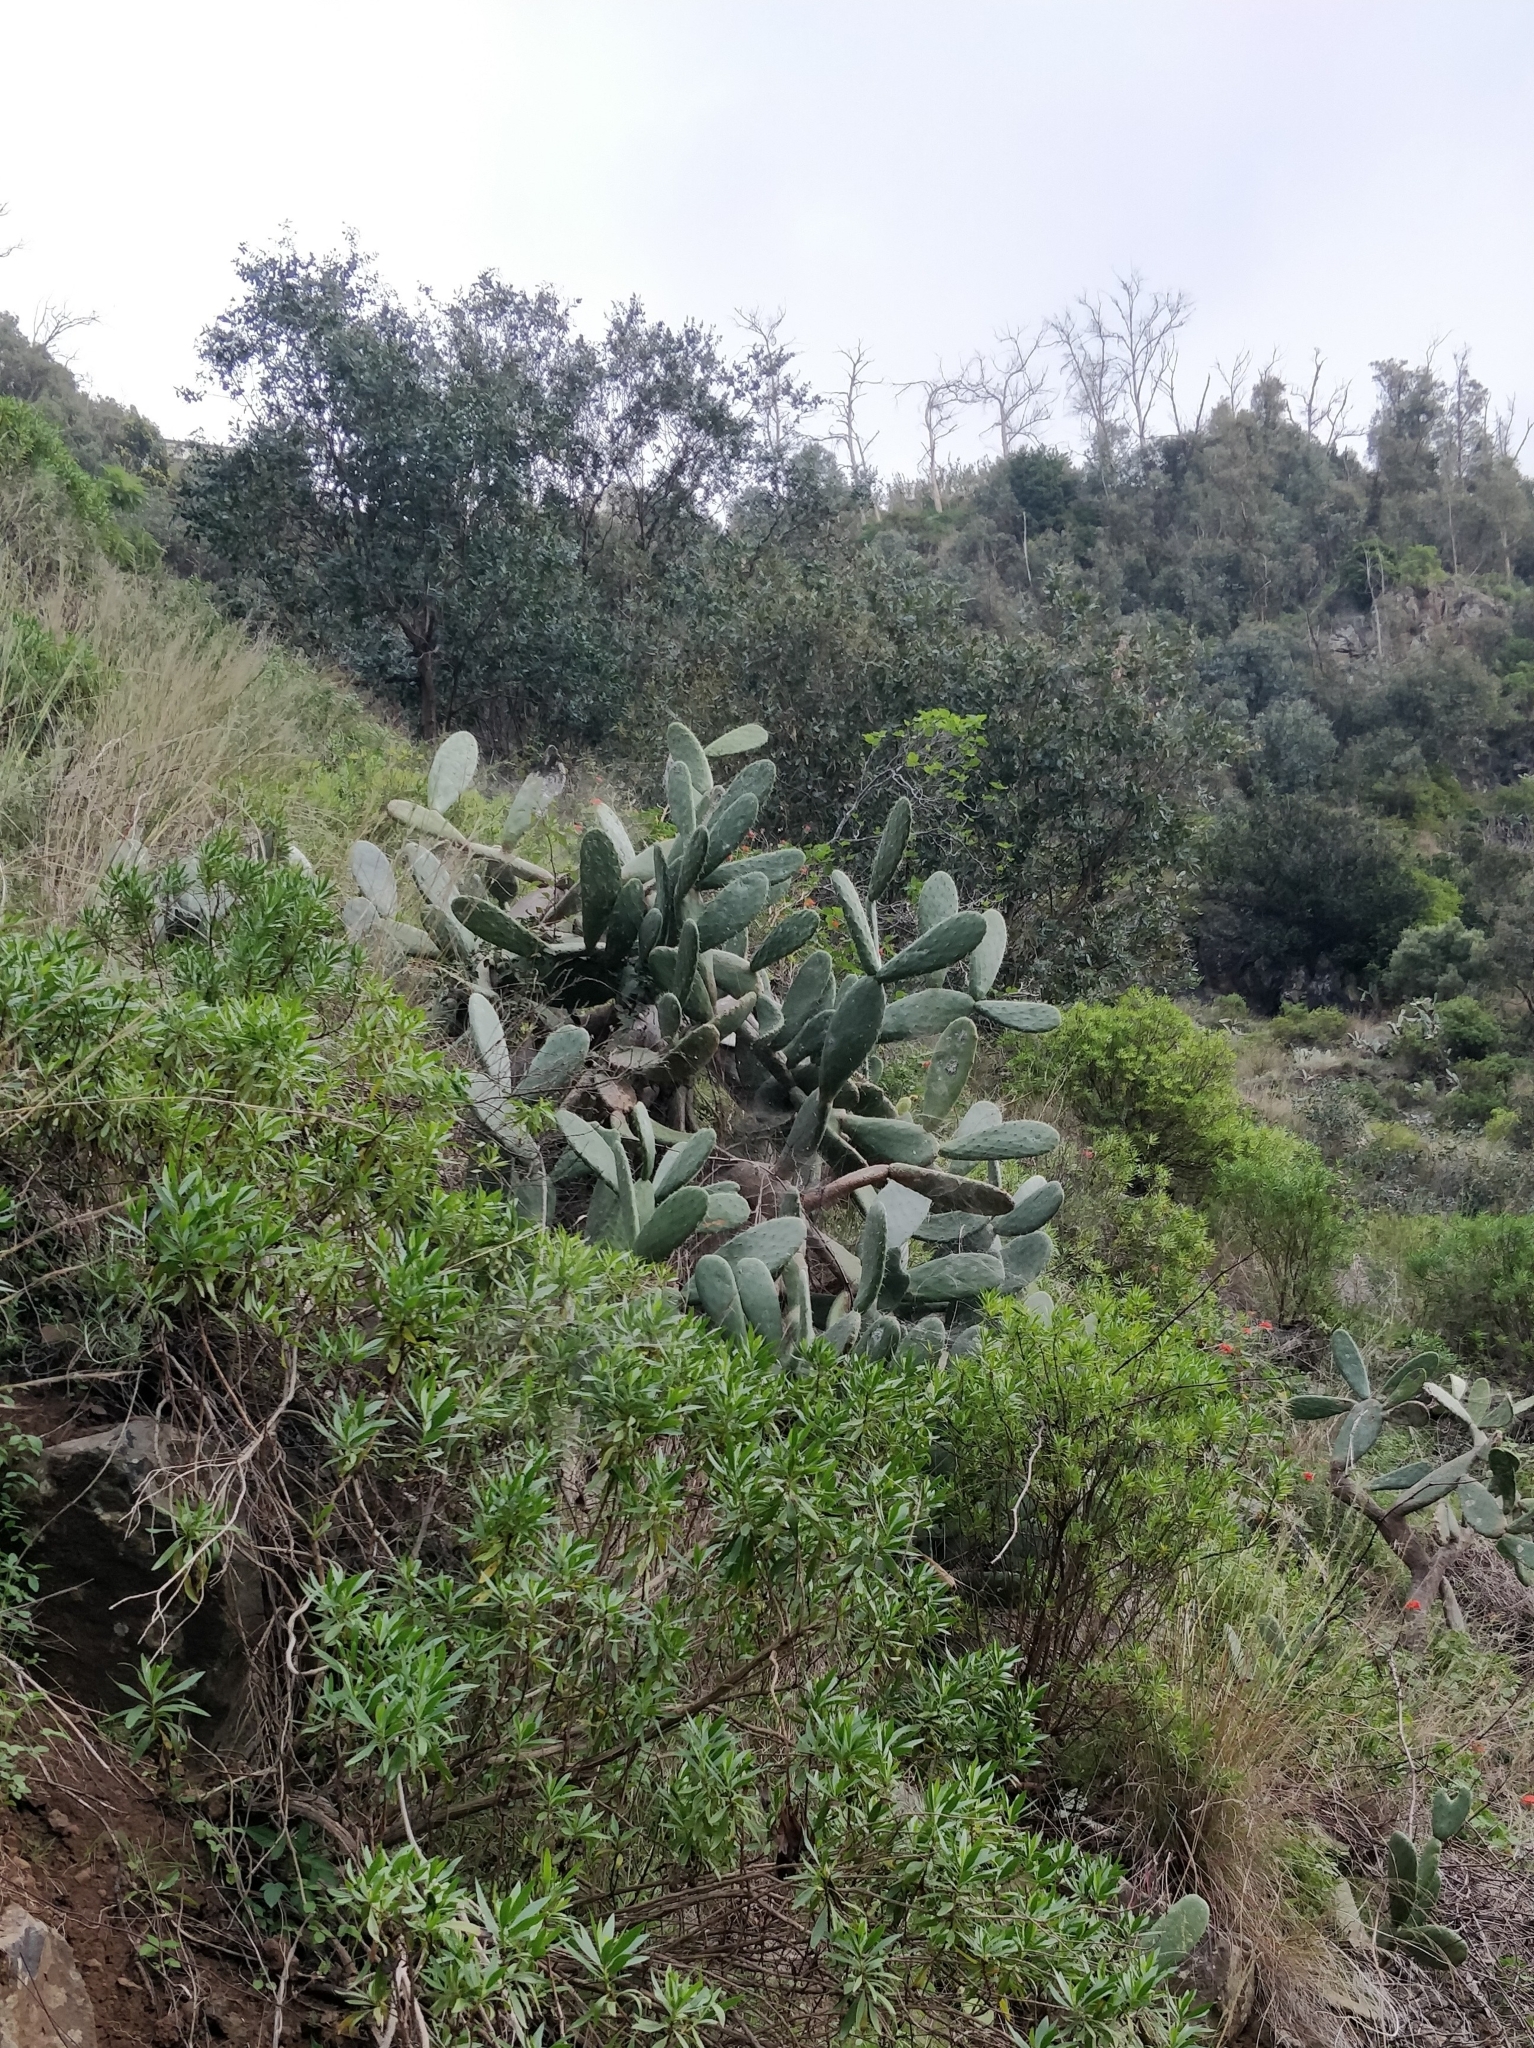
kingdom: Plantae
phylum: Tracheophyta
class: Magnoliopsida
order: Caryophyllales
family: Cactaceae
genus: Opuntia
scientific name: Opuntia ficus-indica
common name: Barbary fig
